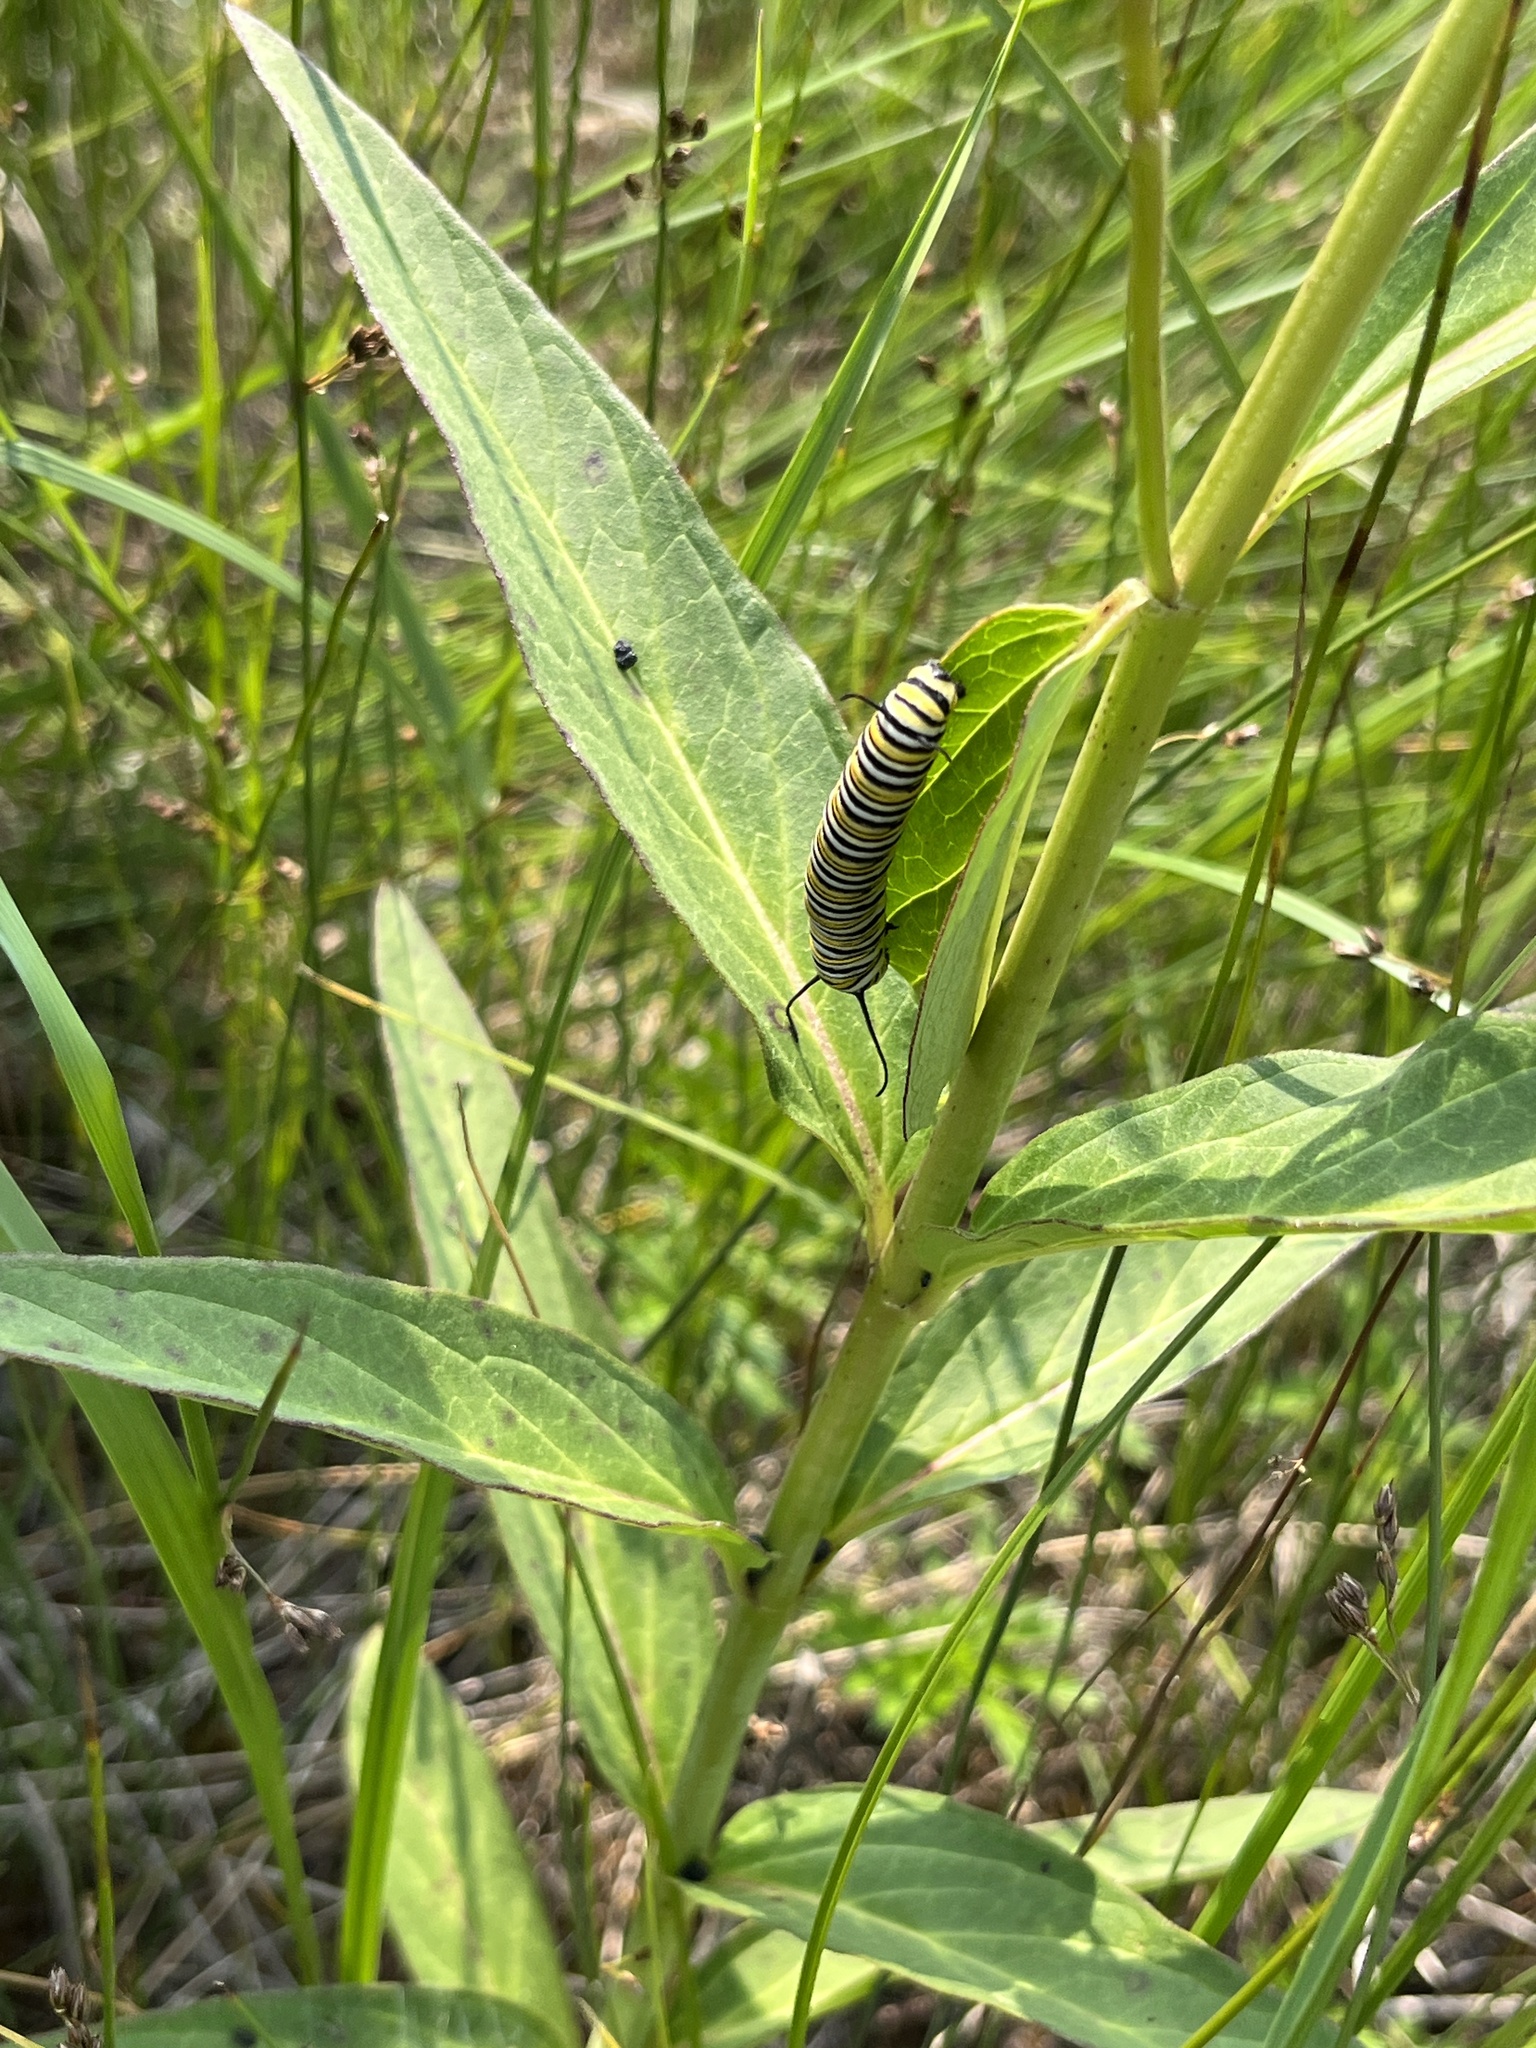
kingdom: Animalia
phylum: Arthropoda
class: Insecta
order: Lepidoptera
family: Nymphalidae
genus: Danaus
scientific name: Danaus plexippus
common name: Monarch
